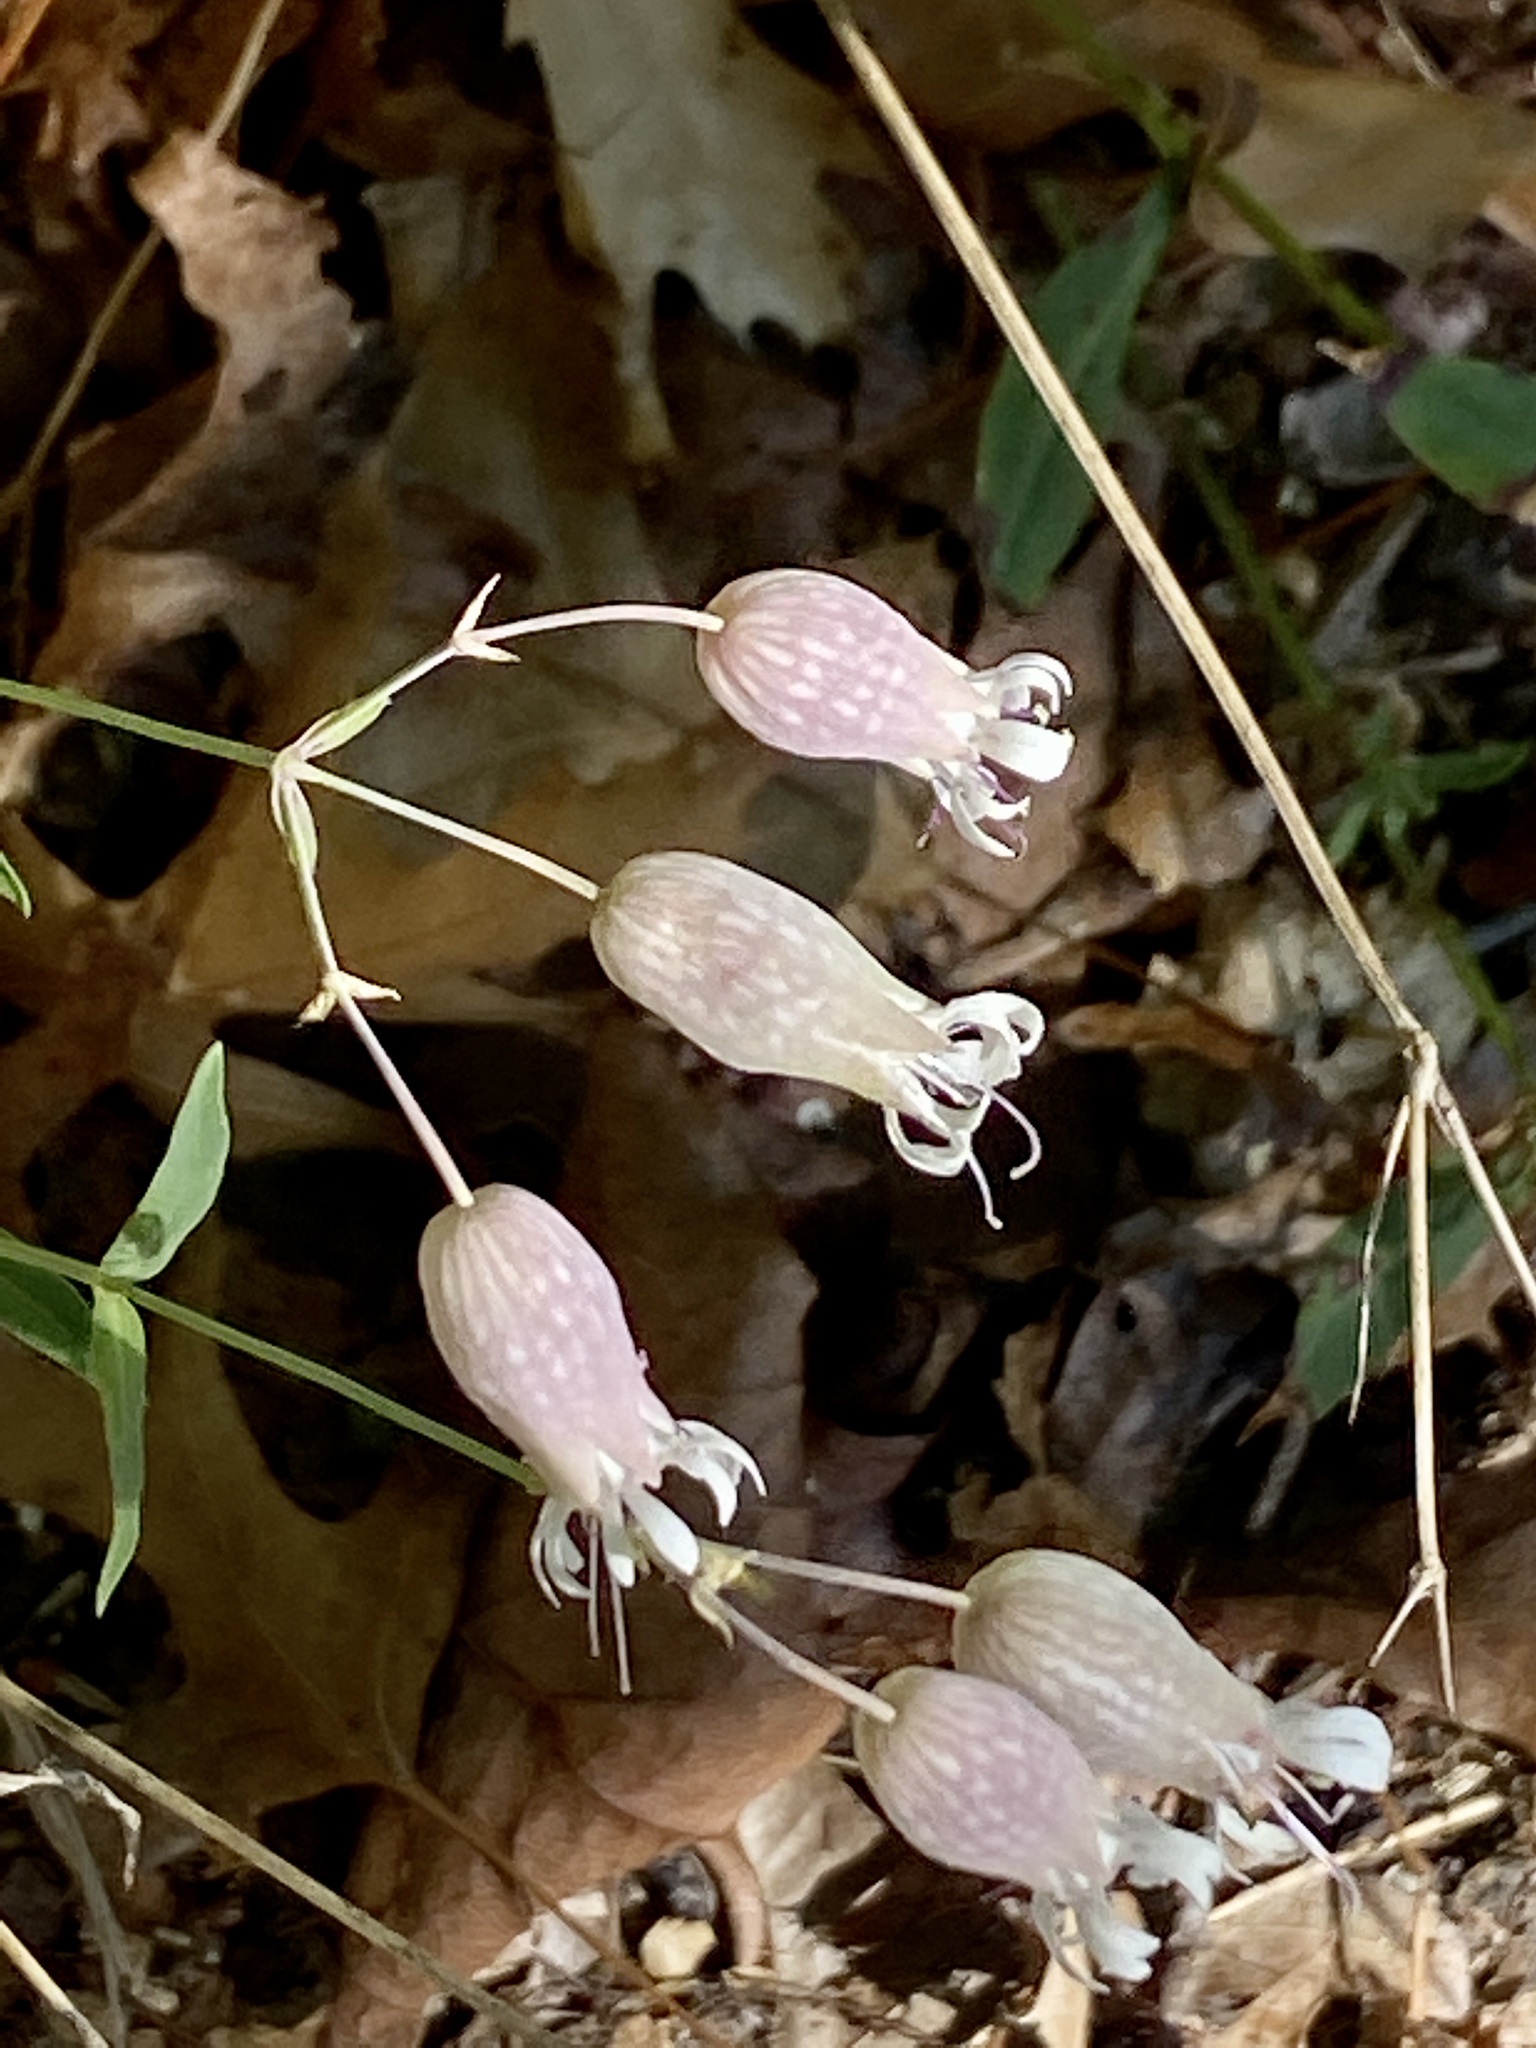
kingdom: Plantae
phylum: Tracheophyta
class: Magnoliopsida
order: Caryophyllales
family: Caryophyllaceae
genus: Silene
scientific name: Silene vulgaris
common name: Bladder campion
